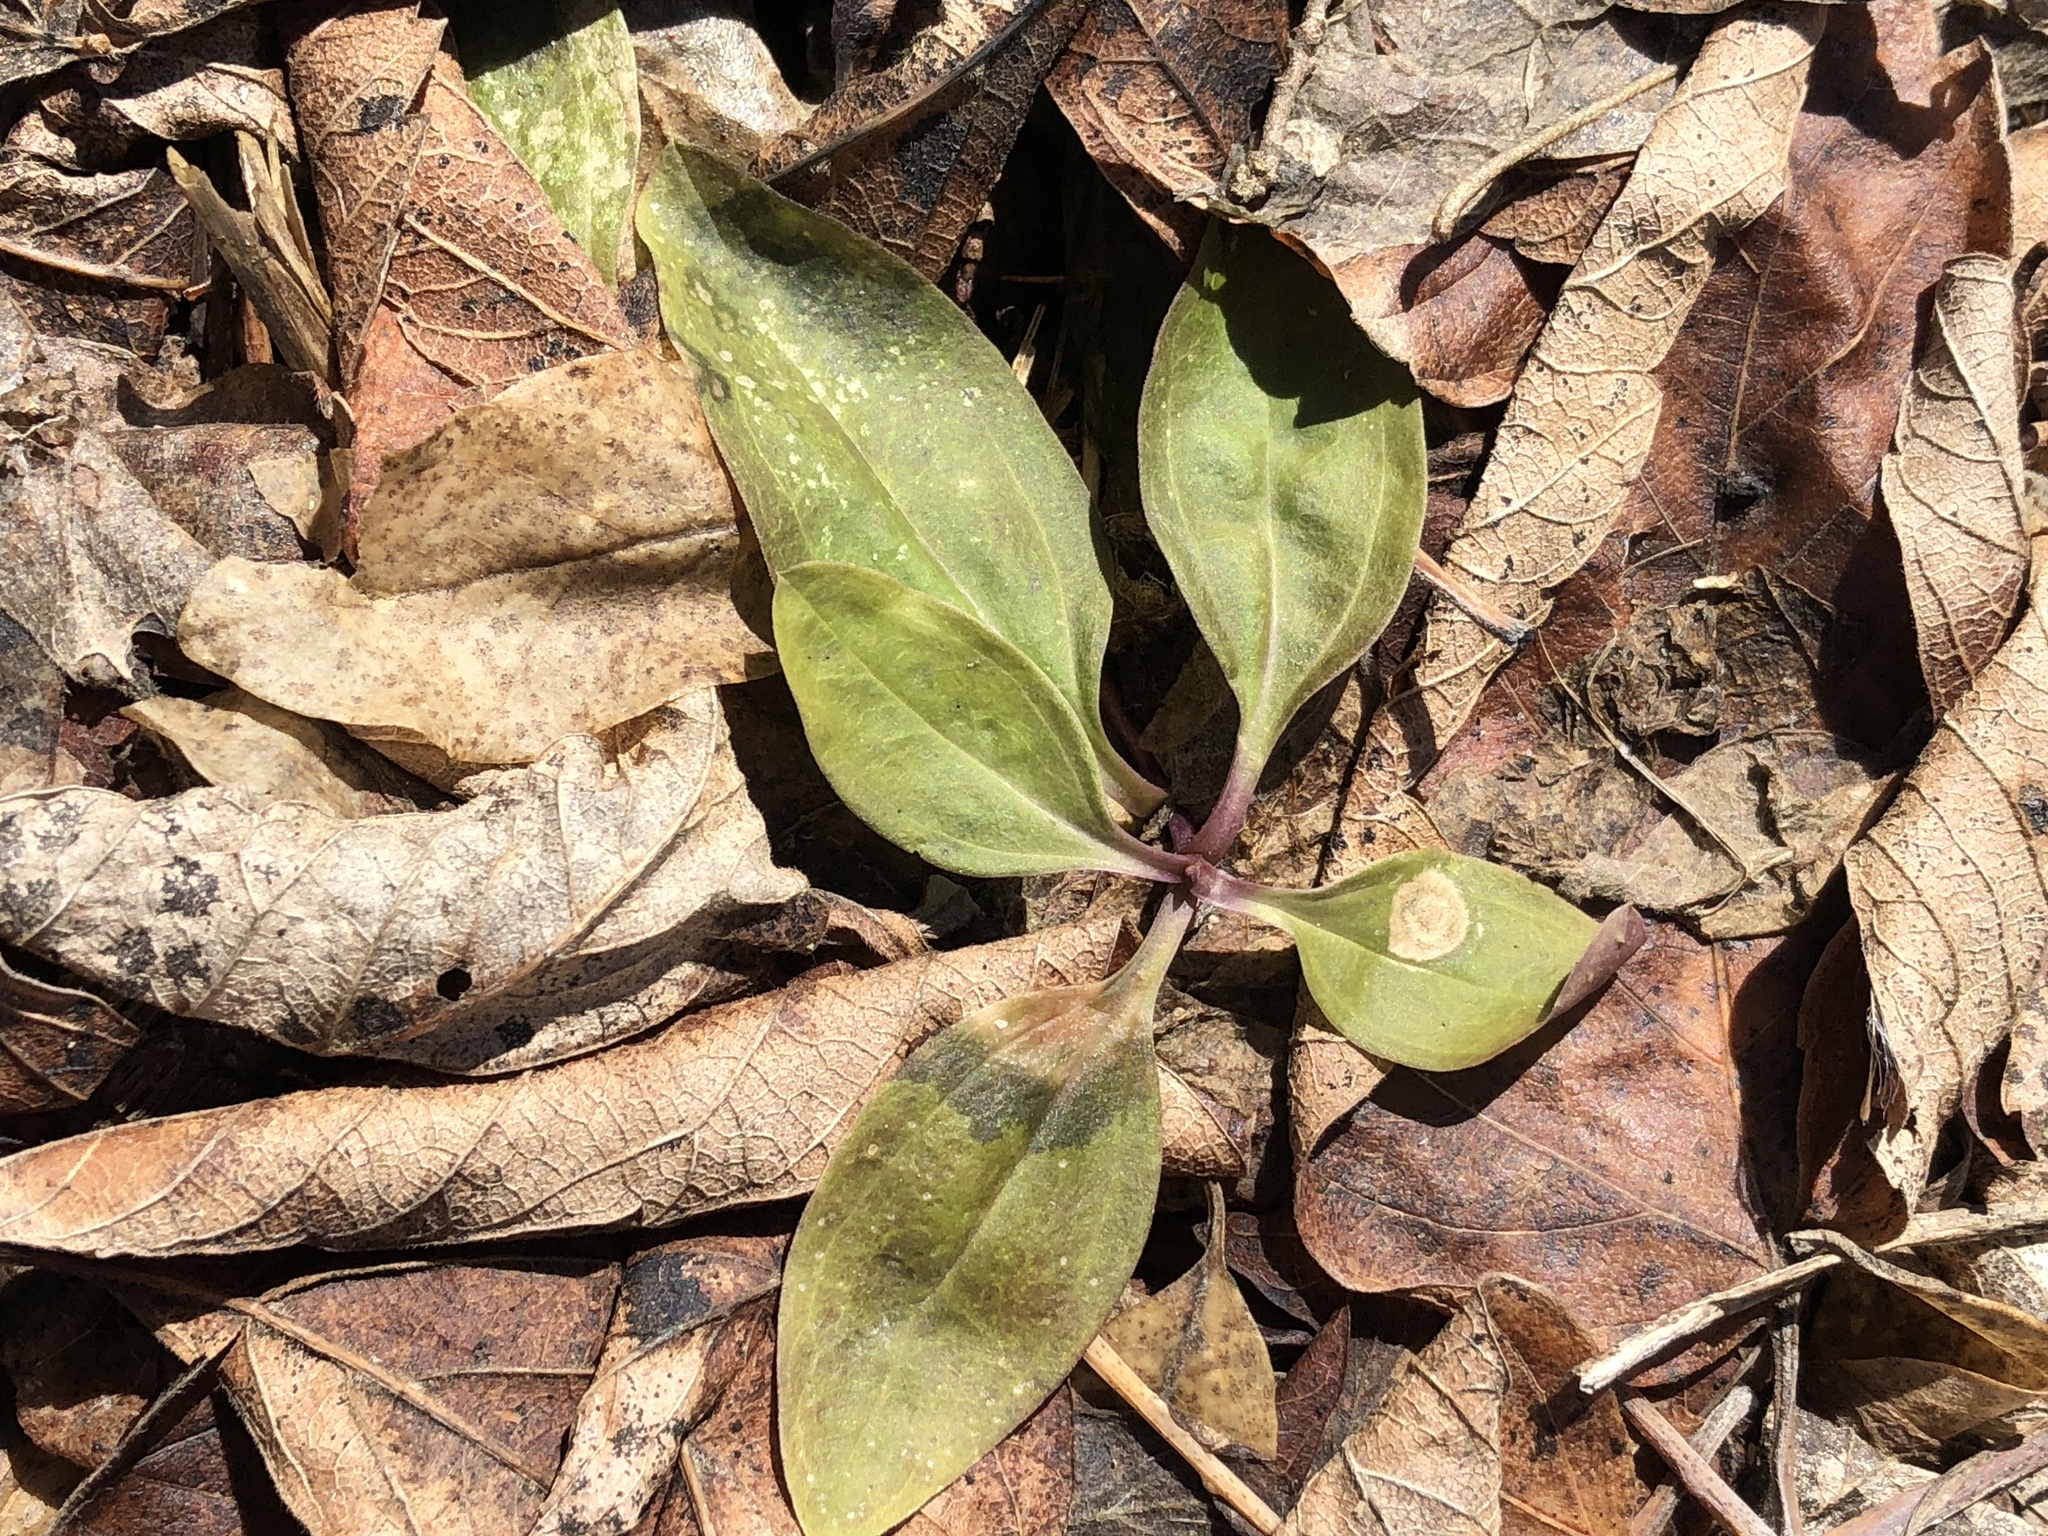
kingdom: Plantae
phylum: Tracheophyta
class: Magnoliopsida
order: Caryophyllales
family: Caryophyllaceae
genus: Saponaria
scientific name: Saponaria officinalis
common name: Soapwort
